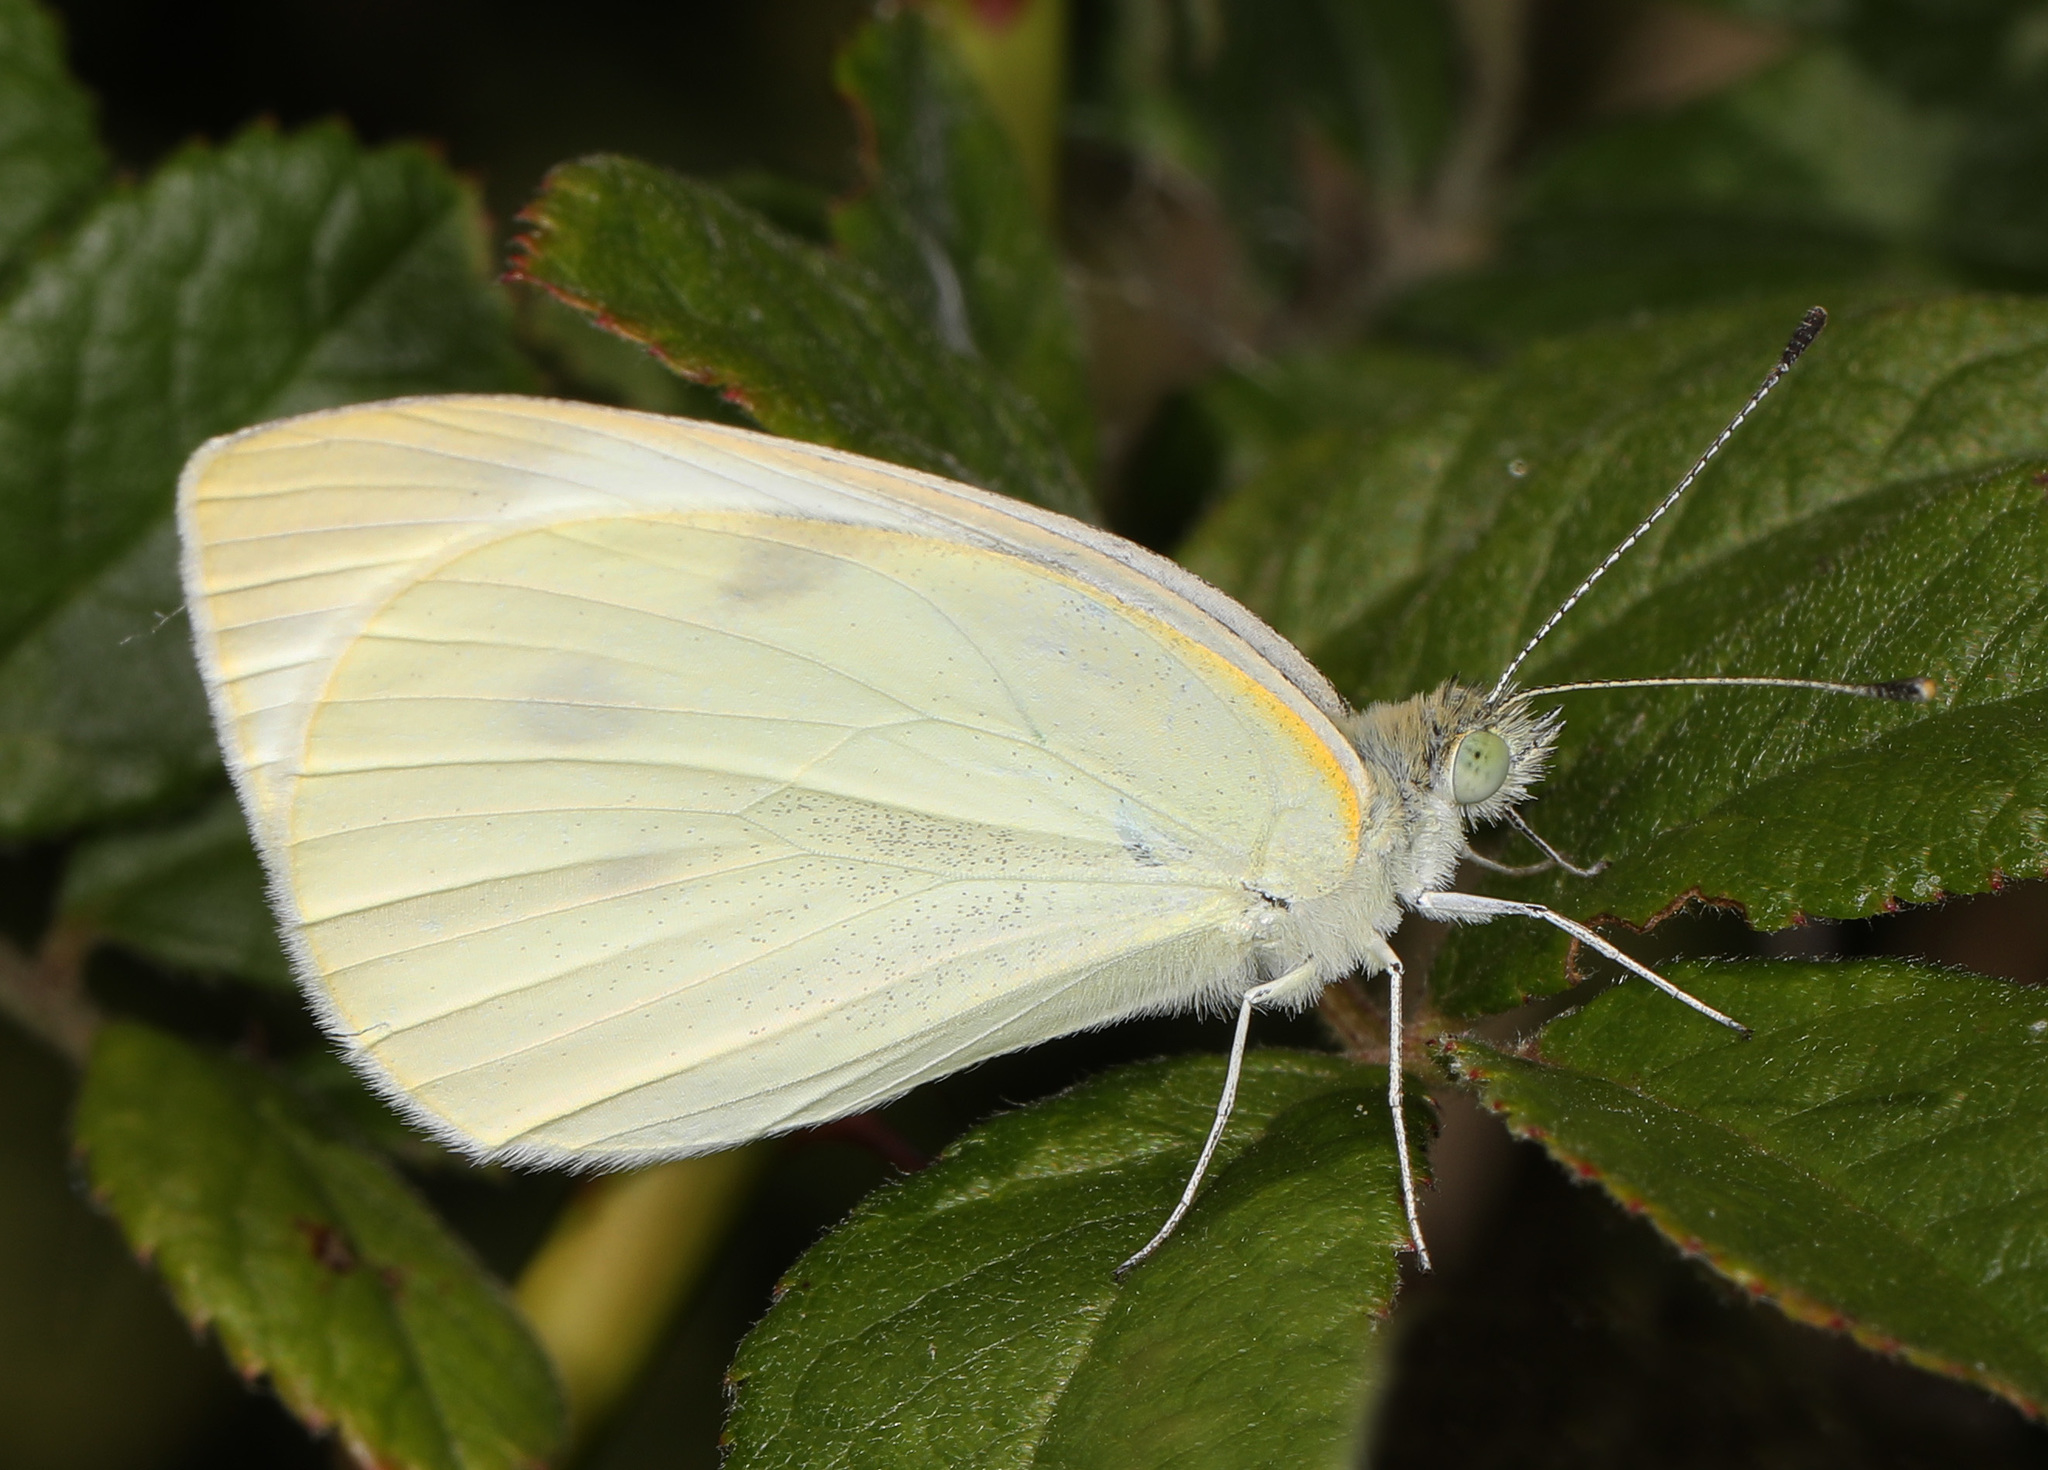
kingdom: Animalia
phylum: Arthropoda
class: Insecta
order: Lepidoptera
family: Pieridae
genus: Pieris
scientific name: Pieris rapae
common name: Small white
